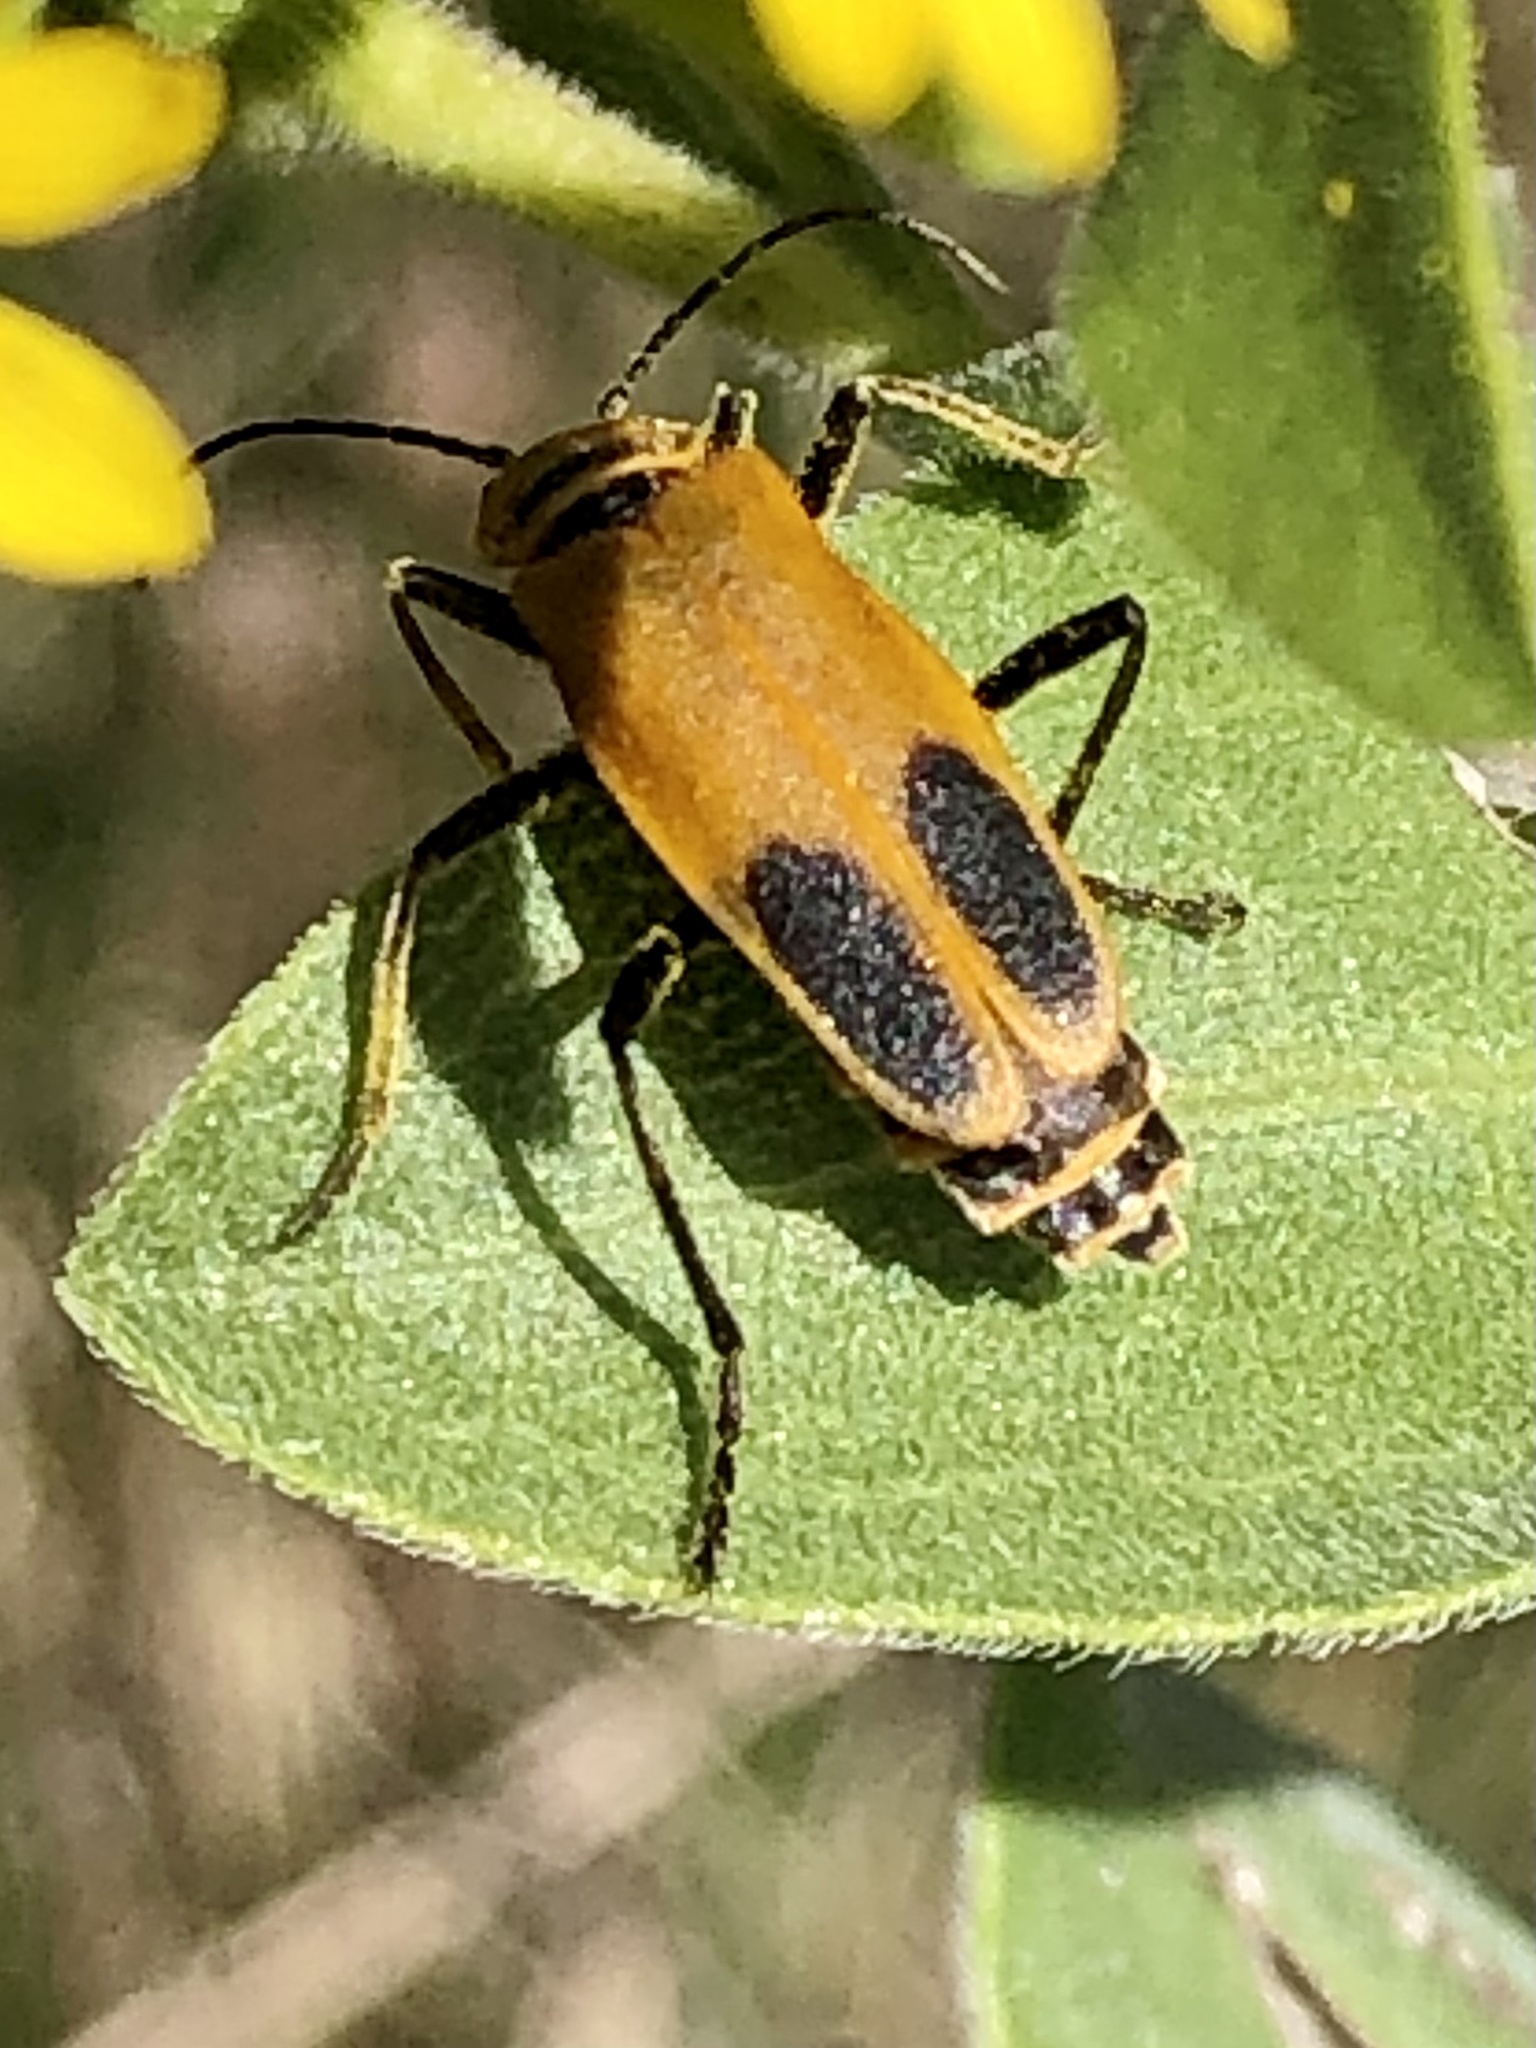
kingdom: Animalia
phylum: Arthropoda
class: Insecta
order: Coleoptera
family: Cantharidae
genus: Chauliognathus
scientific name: Chauliognathus pensylvanicus
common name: Goldenrod soldier beetle
